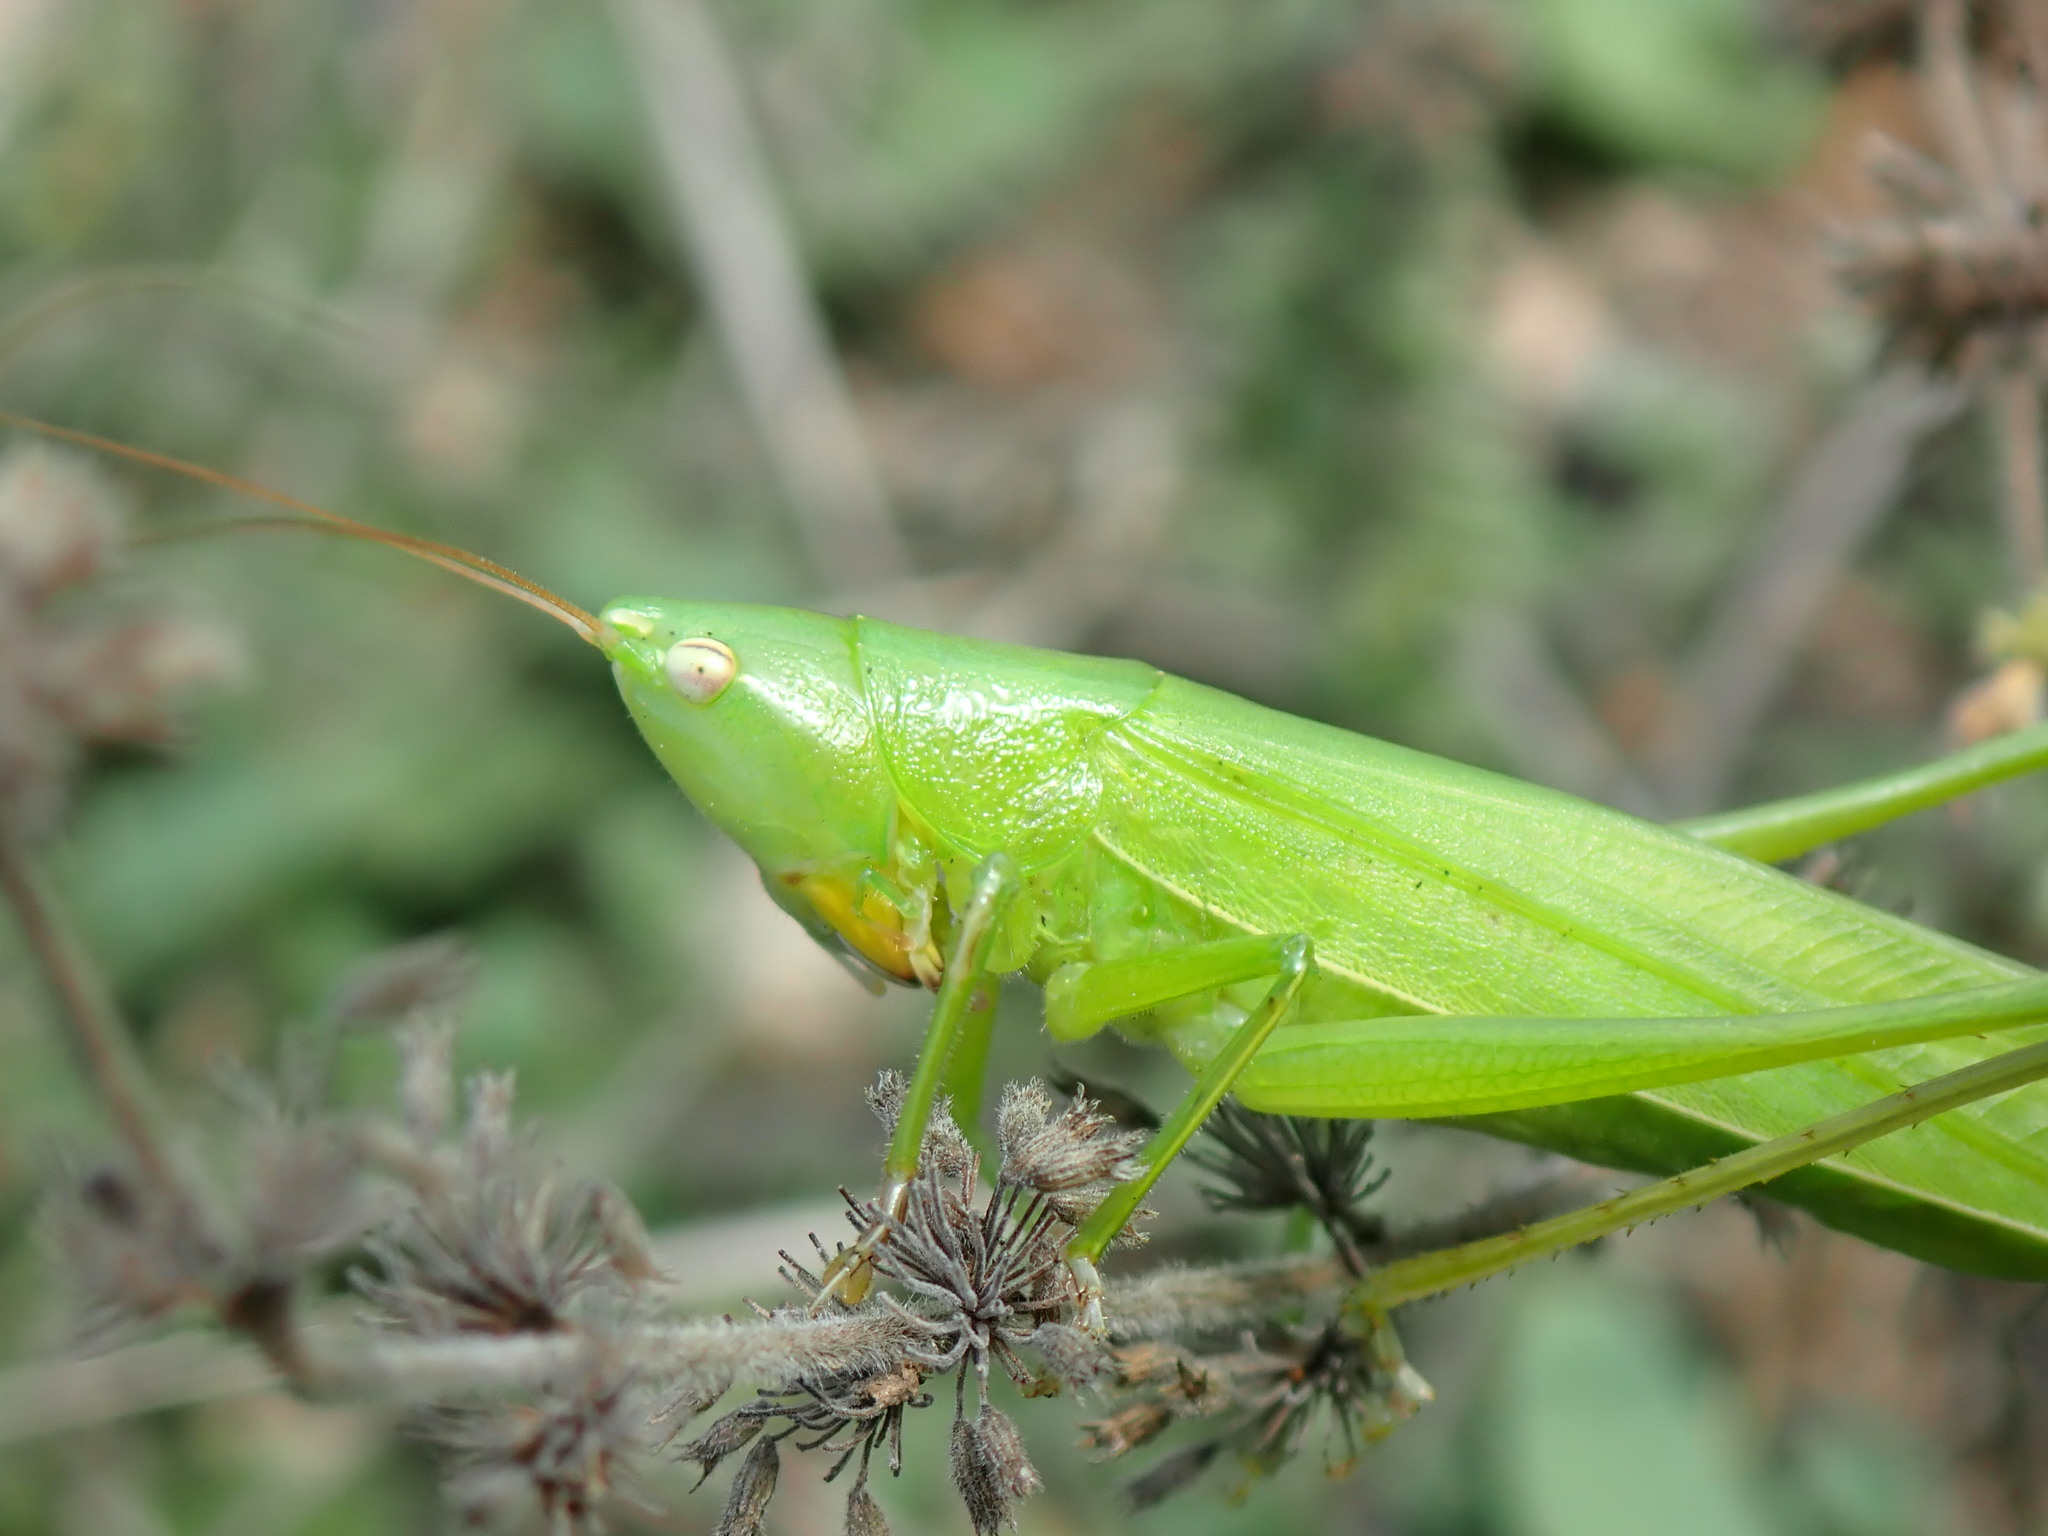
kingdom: Animalia
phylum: Arthropoda
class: Insecta
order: Orthoptera
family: Tettigoniidae
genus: Ruspolia
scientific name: Ruspolia nitidula
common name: Large conehead
